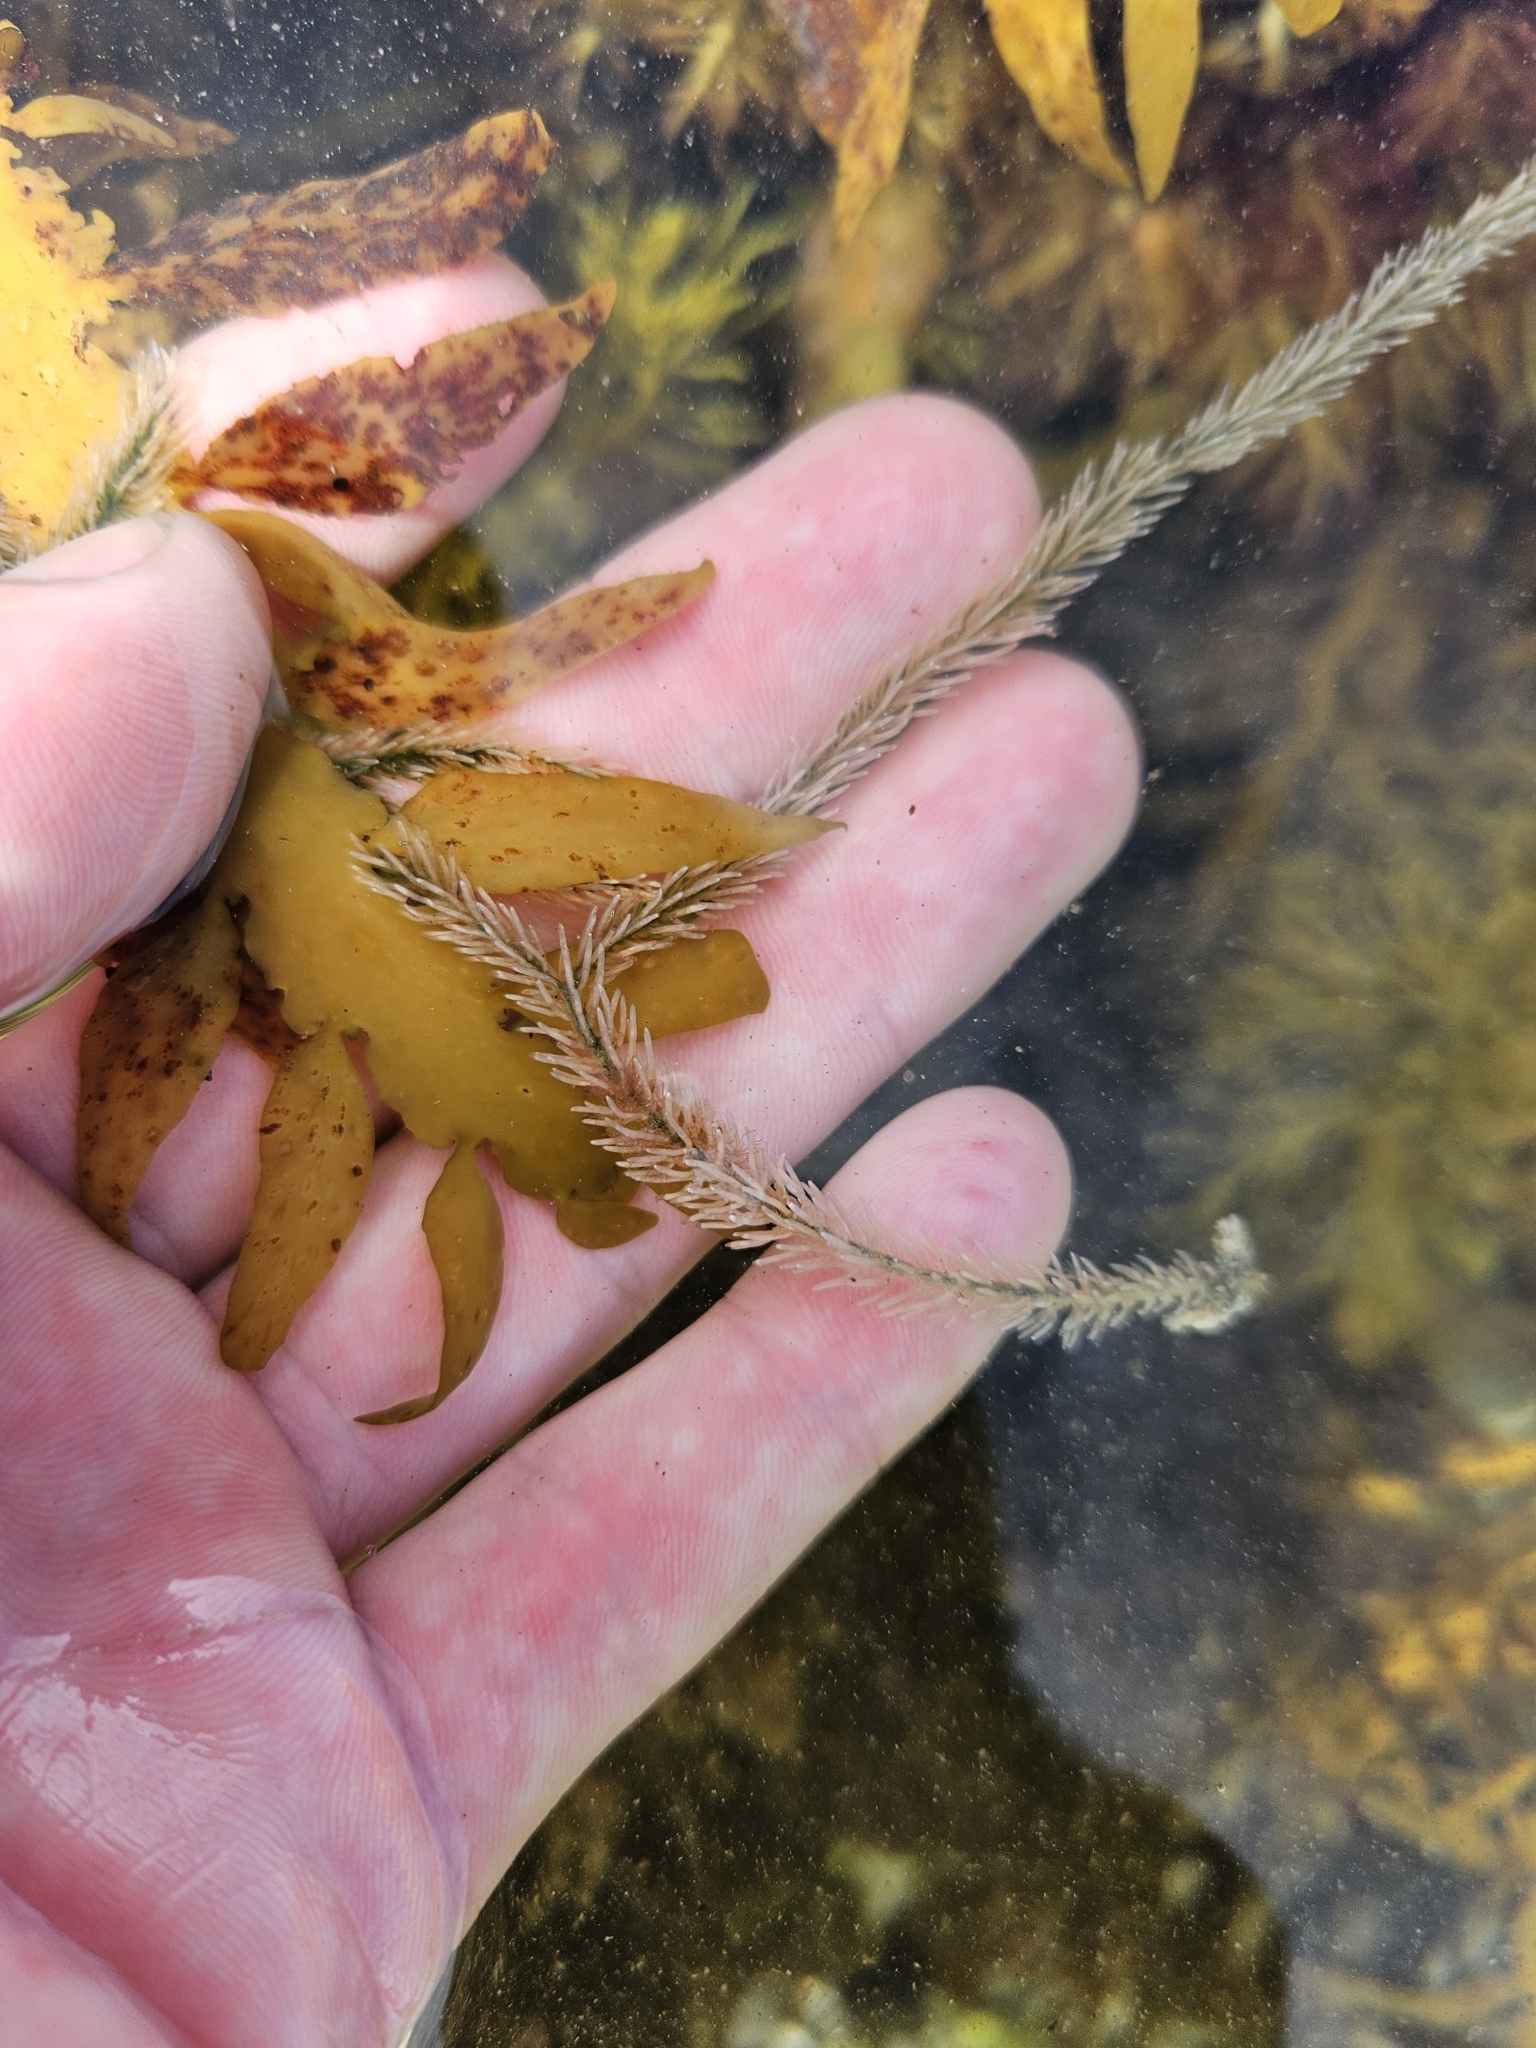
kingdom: Plantae
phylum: Chlorophyta
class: Ulvophyceae
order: Bryopsidales
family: Caulerpaceae
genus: Caulerpa
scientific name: Caulerpa brownii
